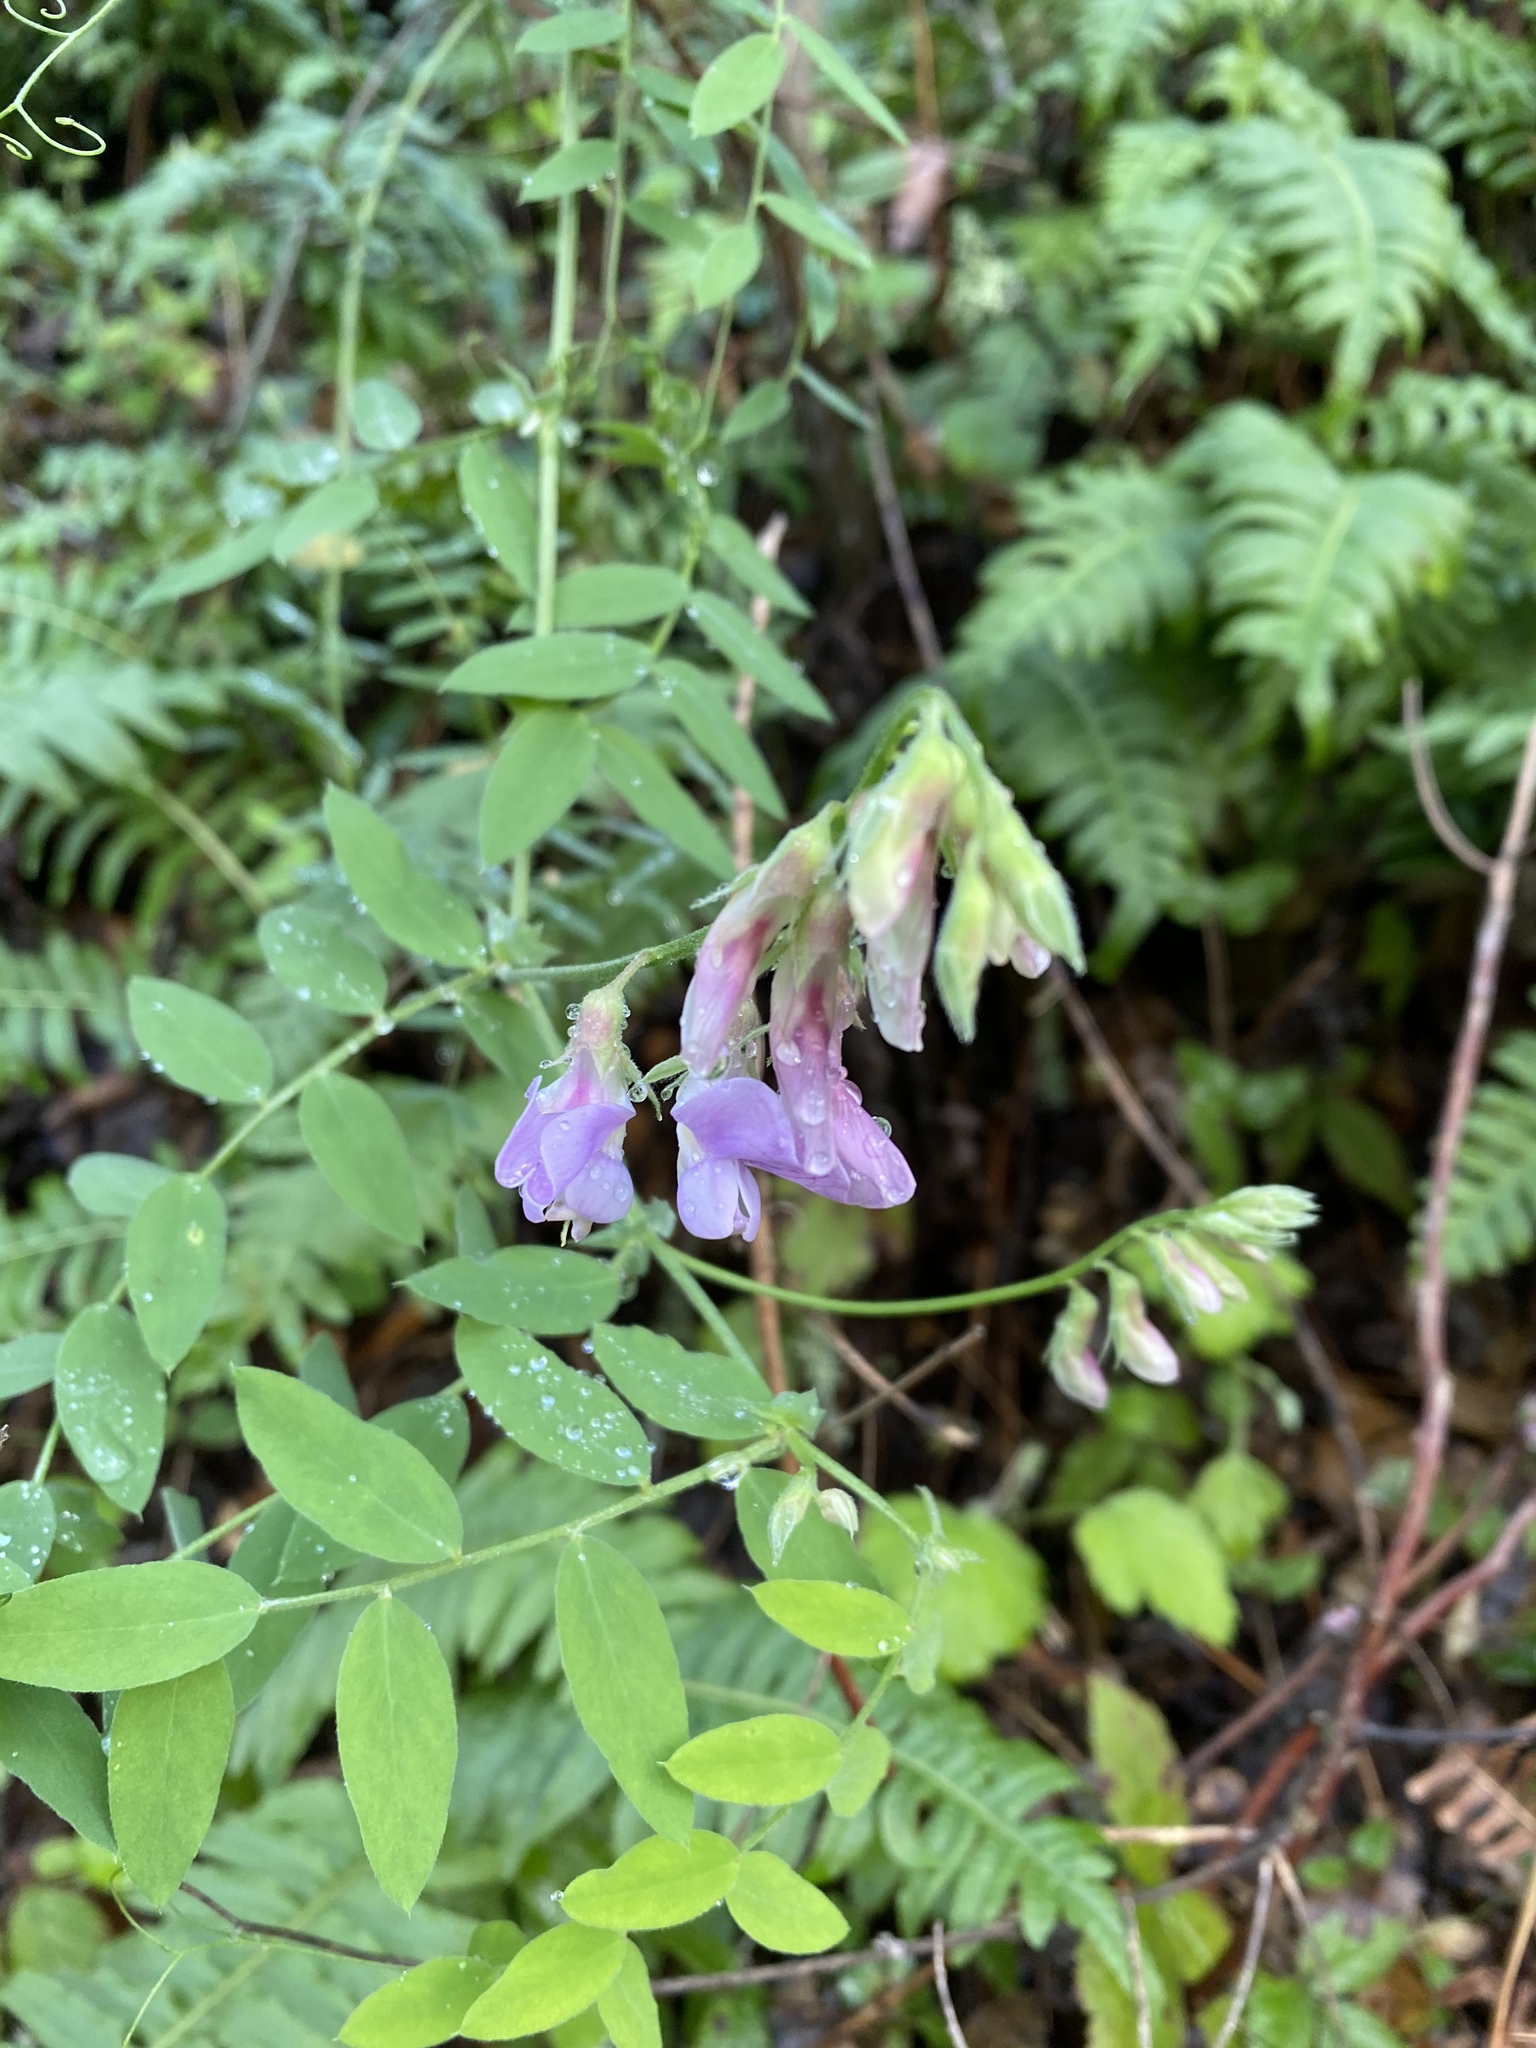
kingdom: Plantae
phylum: Tracheophyta
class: Magnoliopsida
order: Fabales
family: Fabaceae
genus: Lathyrus
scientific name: Lathyrus vestitus
